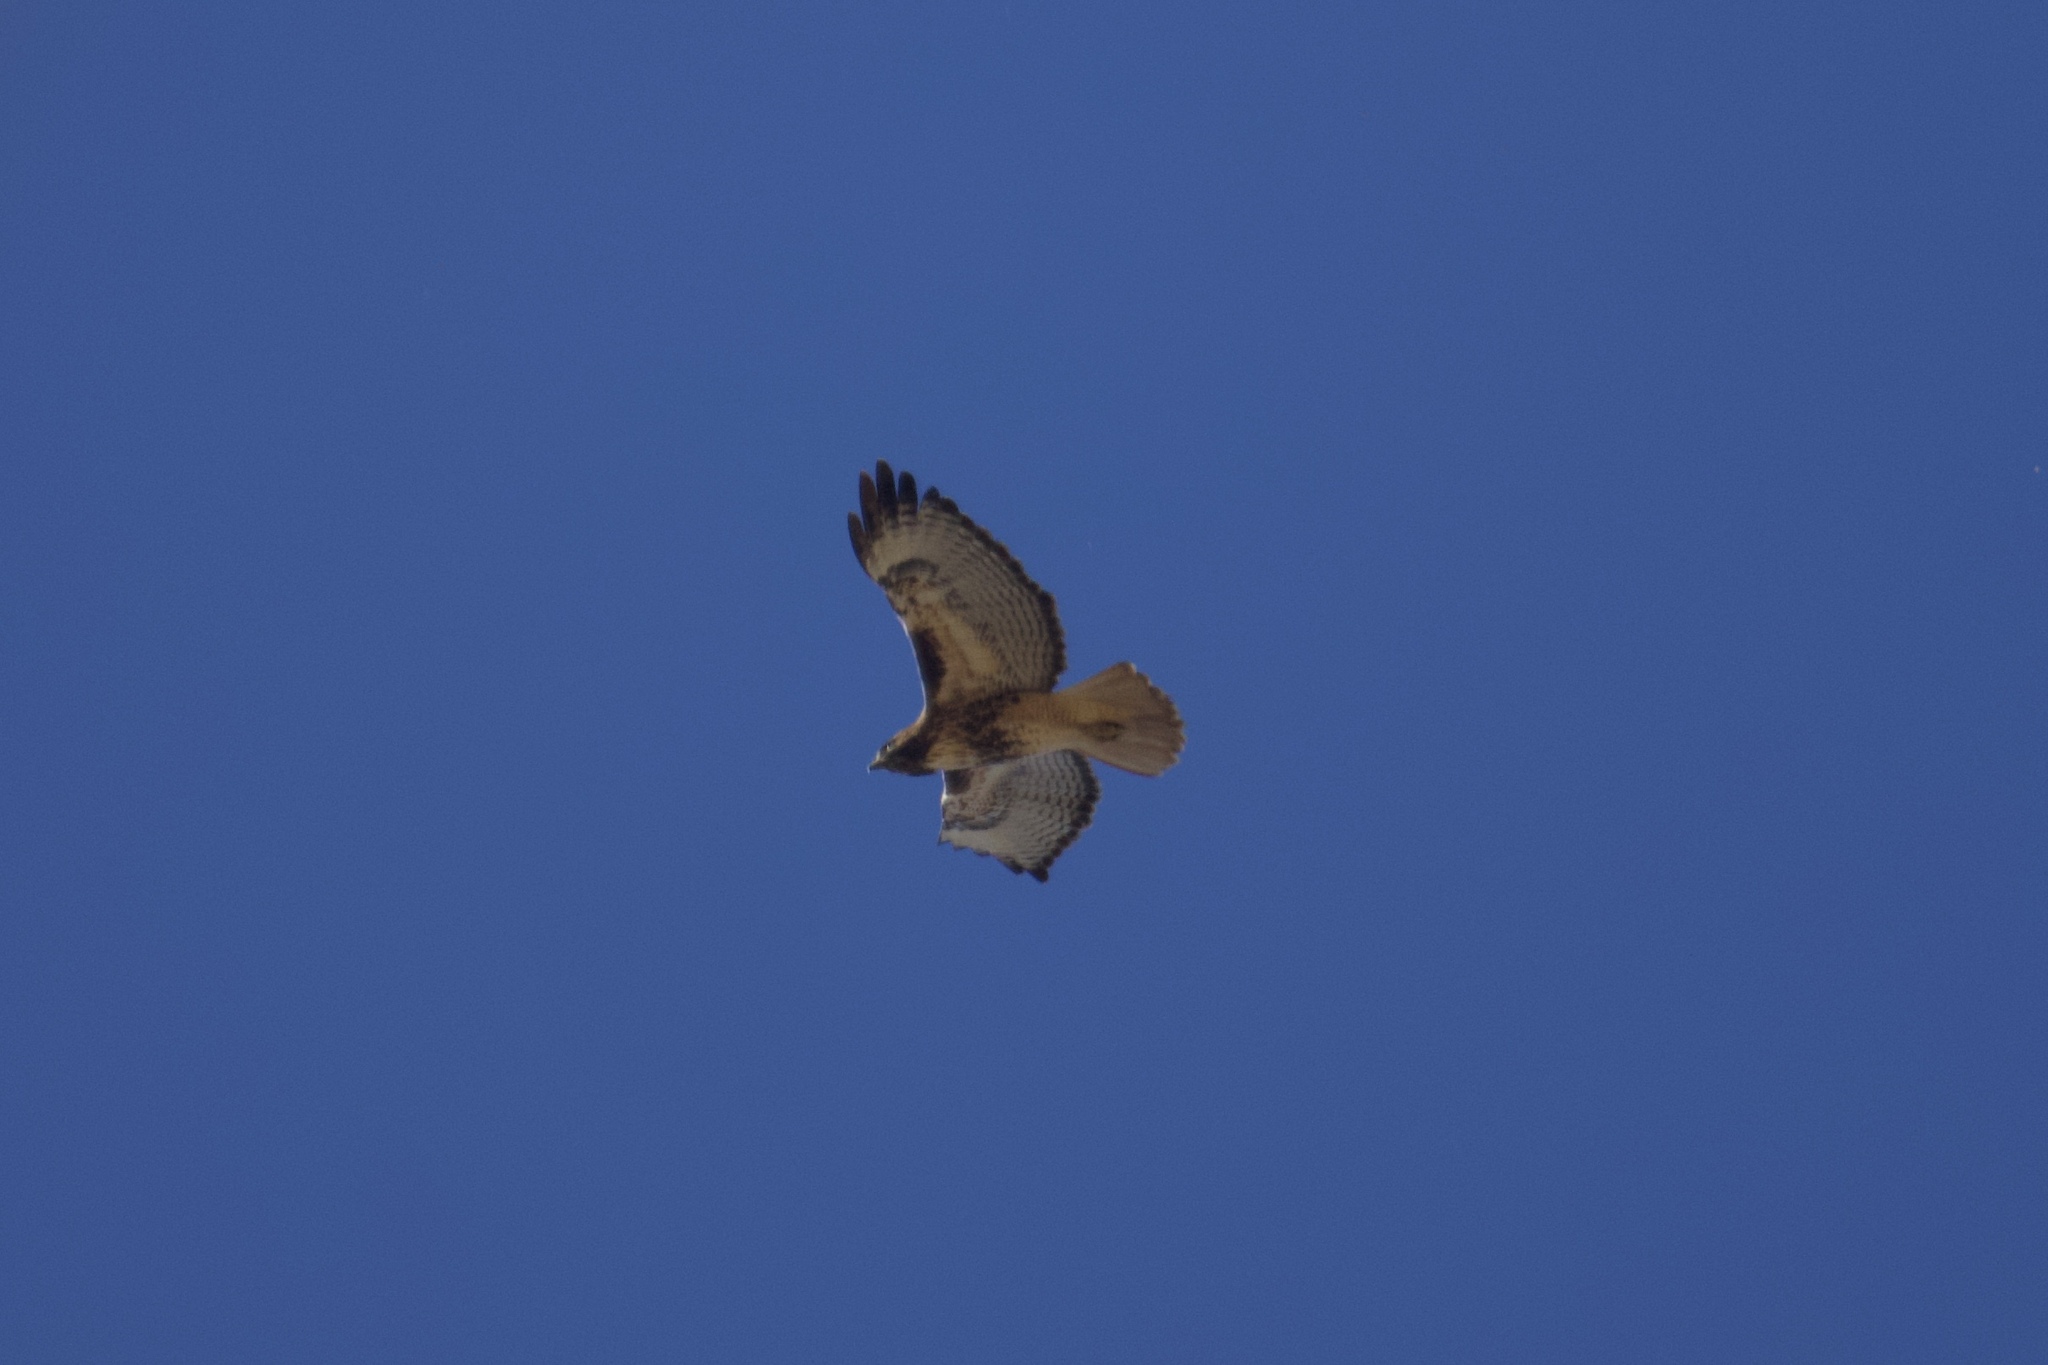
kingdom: Animalia
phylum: Chordata
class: Aves
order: Accipitriformes
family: Accipitridae
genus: Buteo
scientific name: Buteo jamaicensis
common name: Red-tailed hawk
